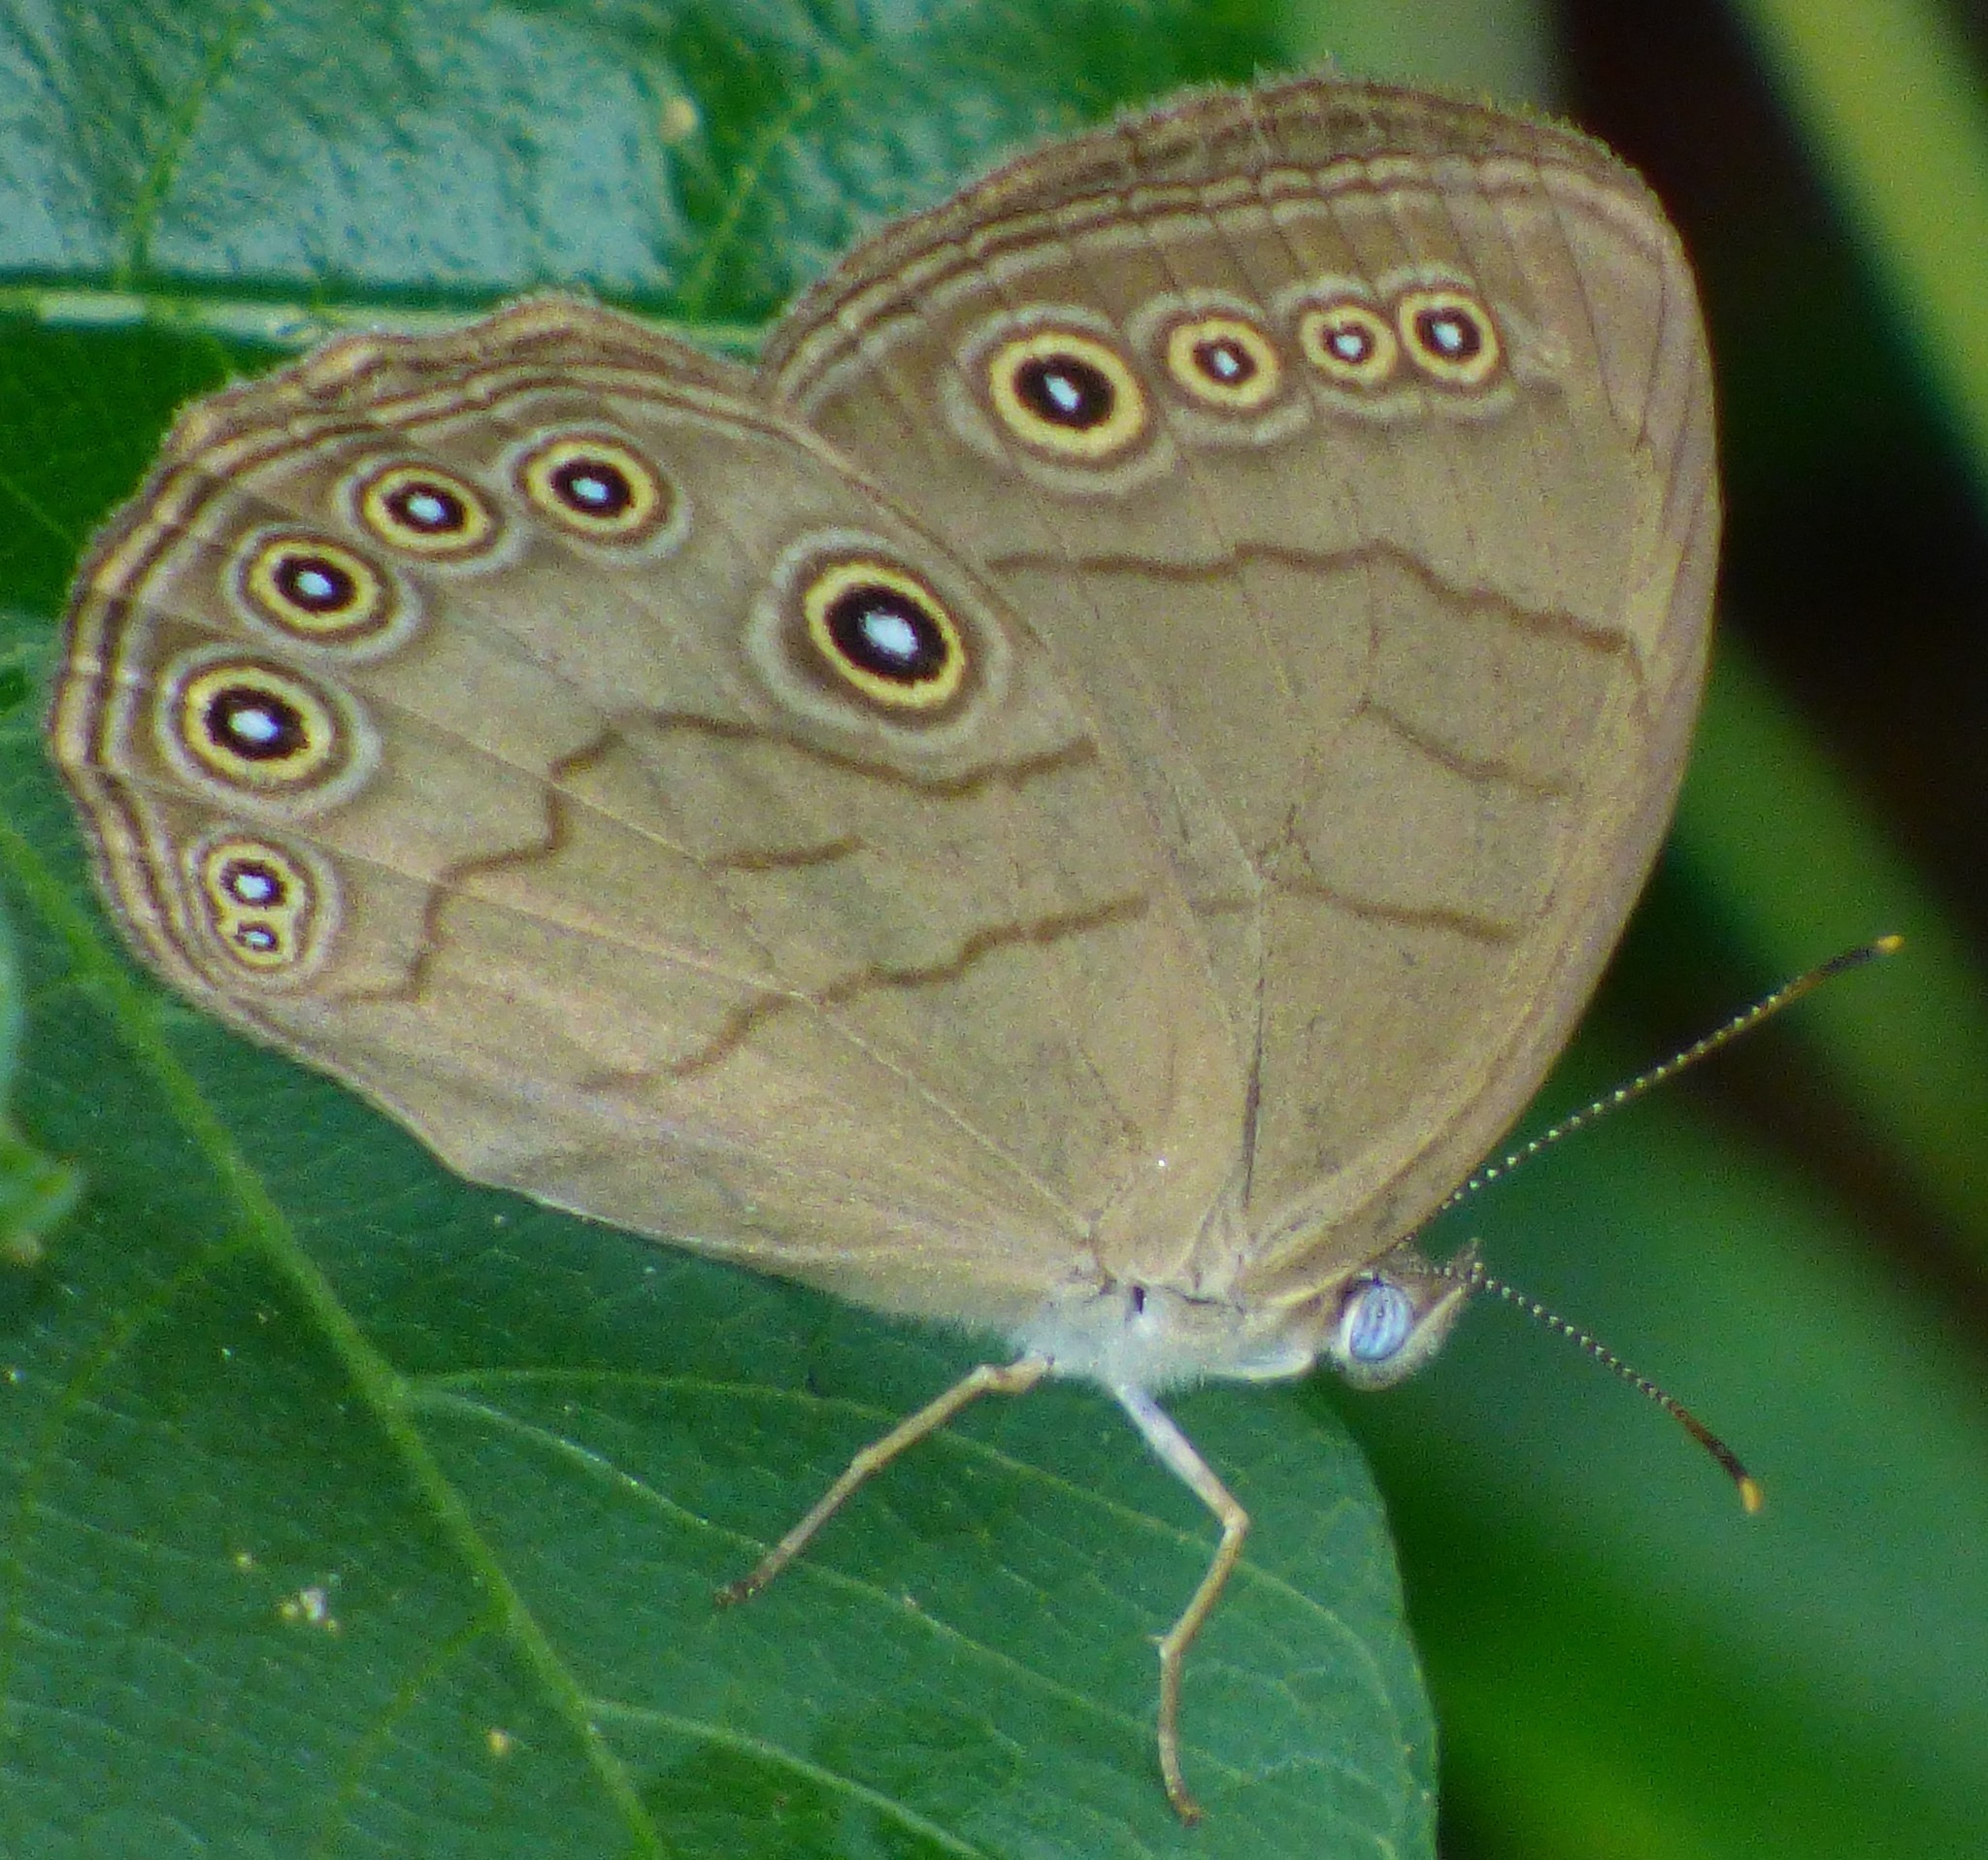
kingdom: Animalia
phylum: Arthropoda
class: Insecta
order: Lepidoptera
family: Nymphalidae
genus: Lethe
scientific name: Lethe eurydice
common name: Eyed brown
